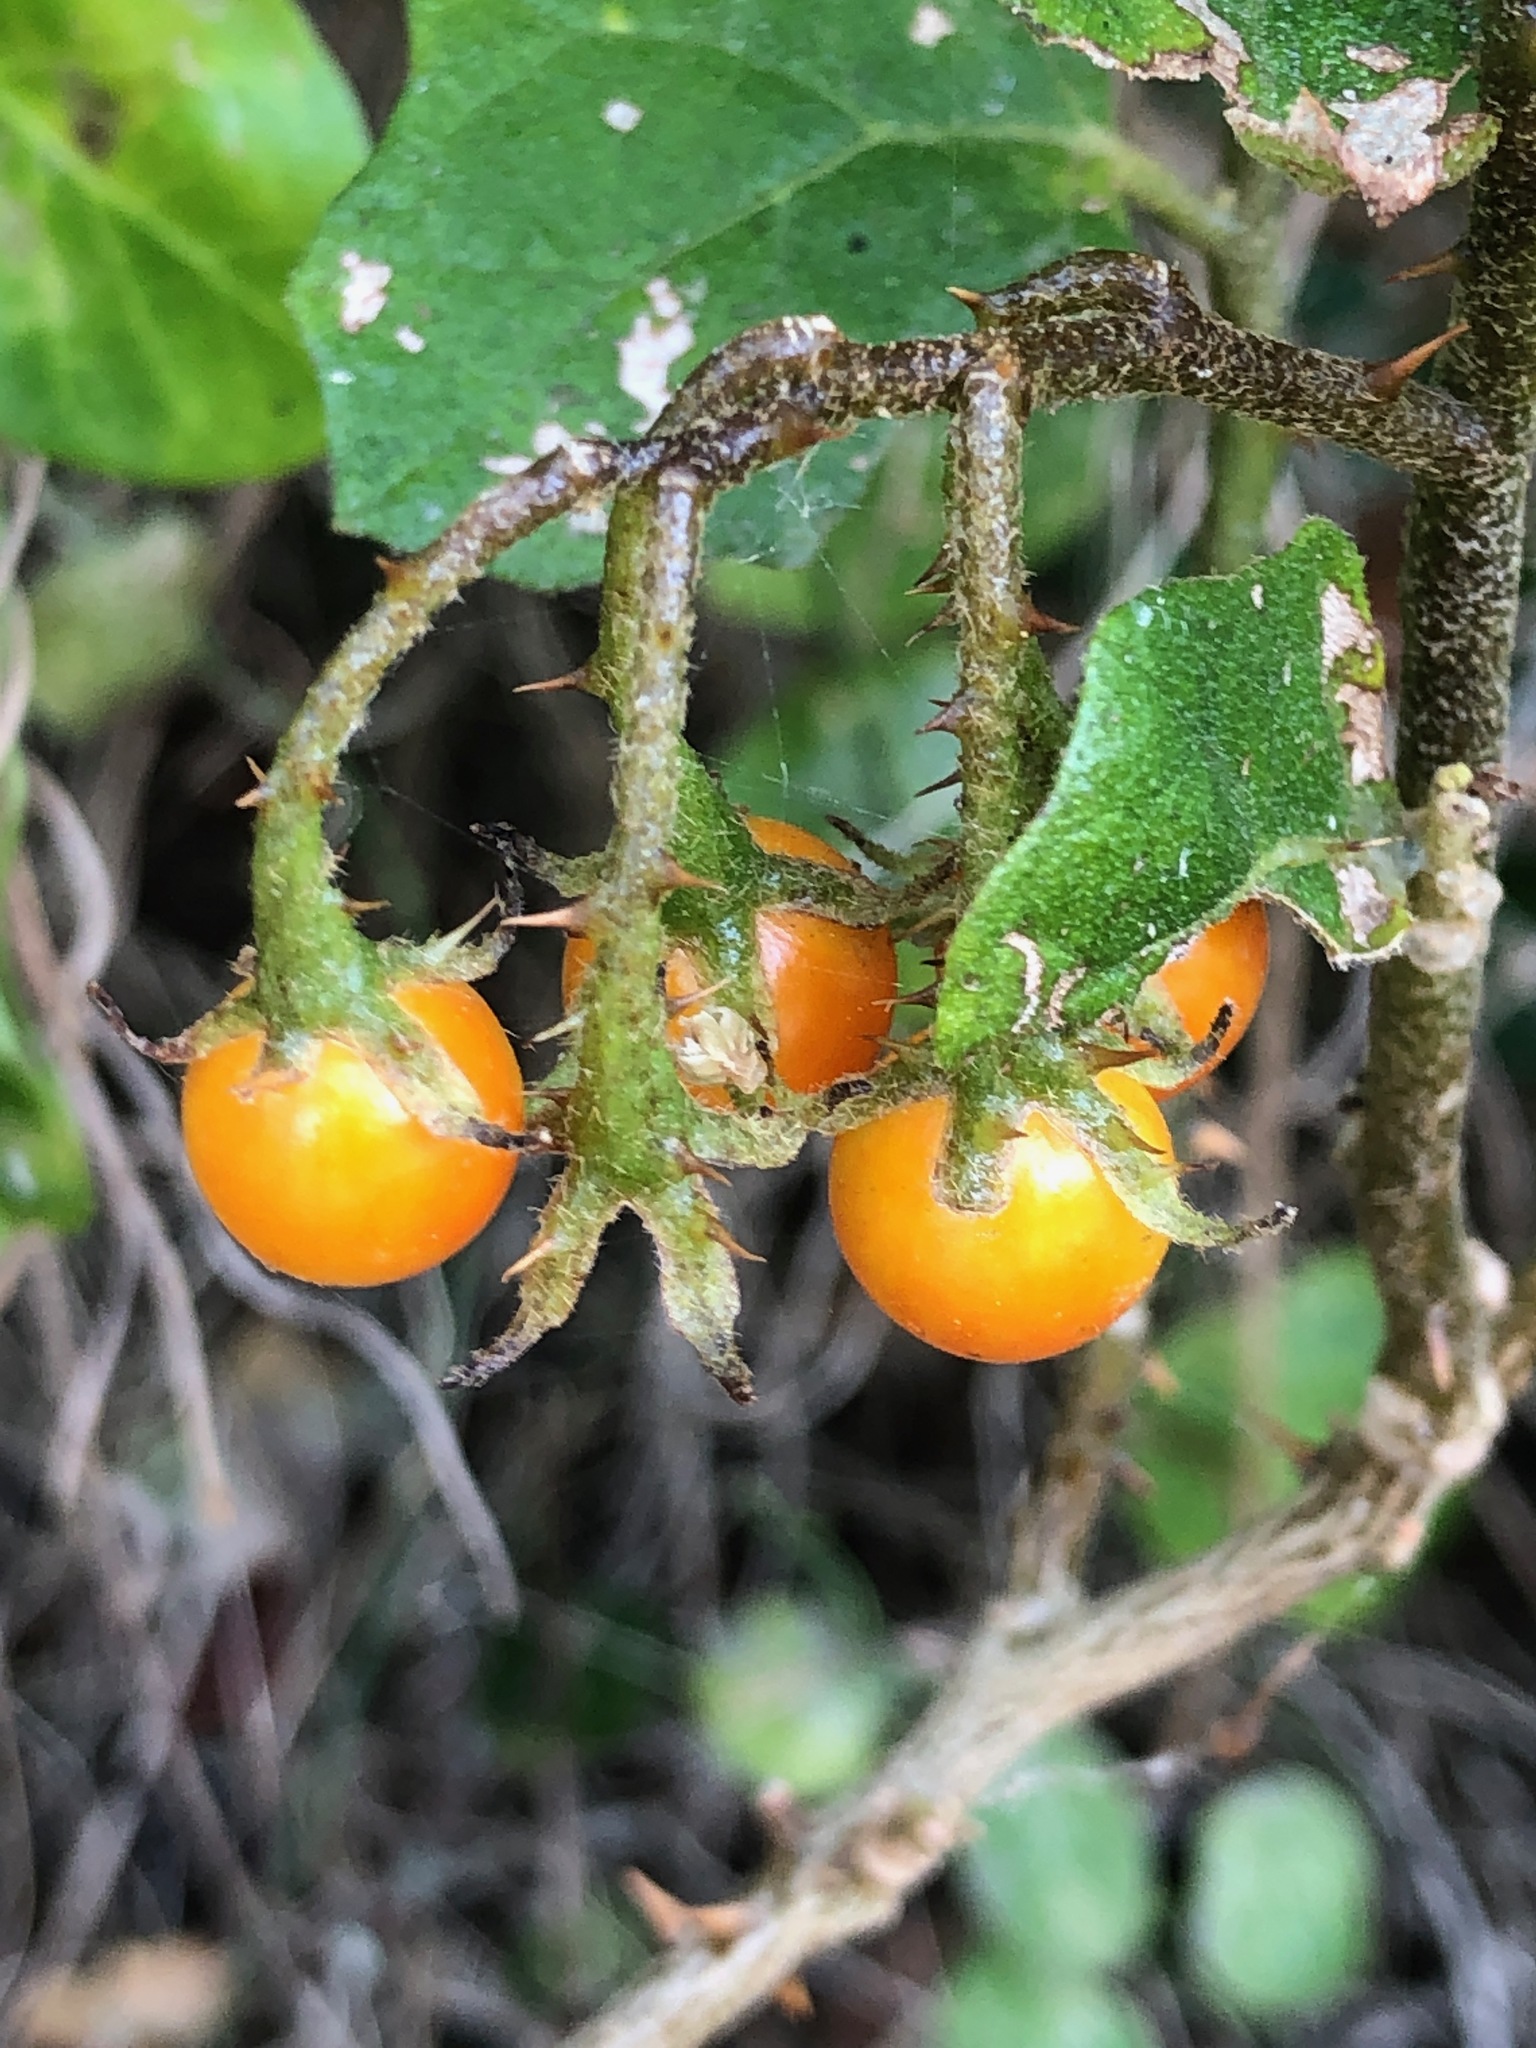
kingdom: Plantae
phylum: Tracheophyta
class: Magnoliopsida
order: Solanales
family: Solanaceae
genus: Solanum
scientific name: Solanum rubetorum
